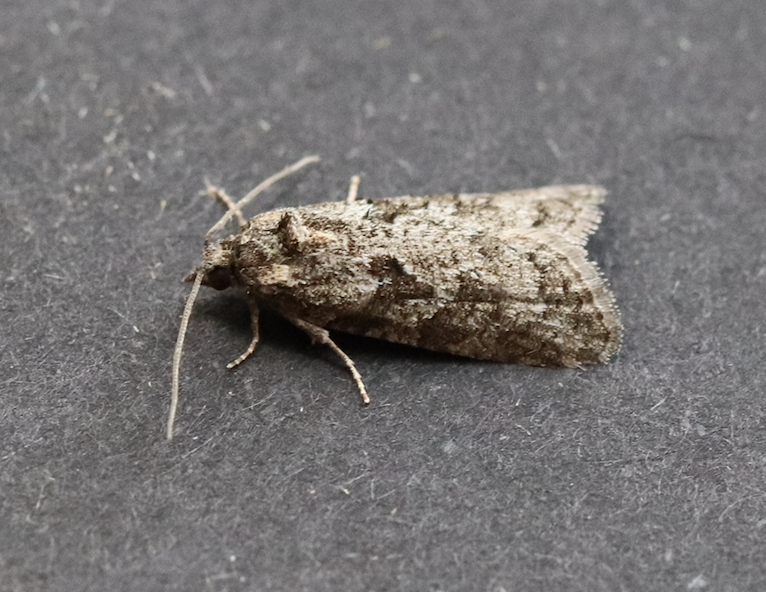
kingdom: Animalia
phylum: Arthropoda
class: Insecta
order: Lepidoptera
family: Tortricidae
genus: Cnephasia
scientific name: Cnephasia stephensiana
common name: Grey tortrix
